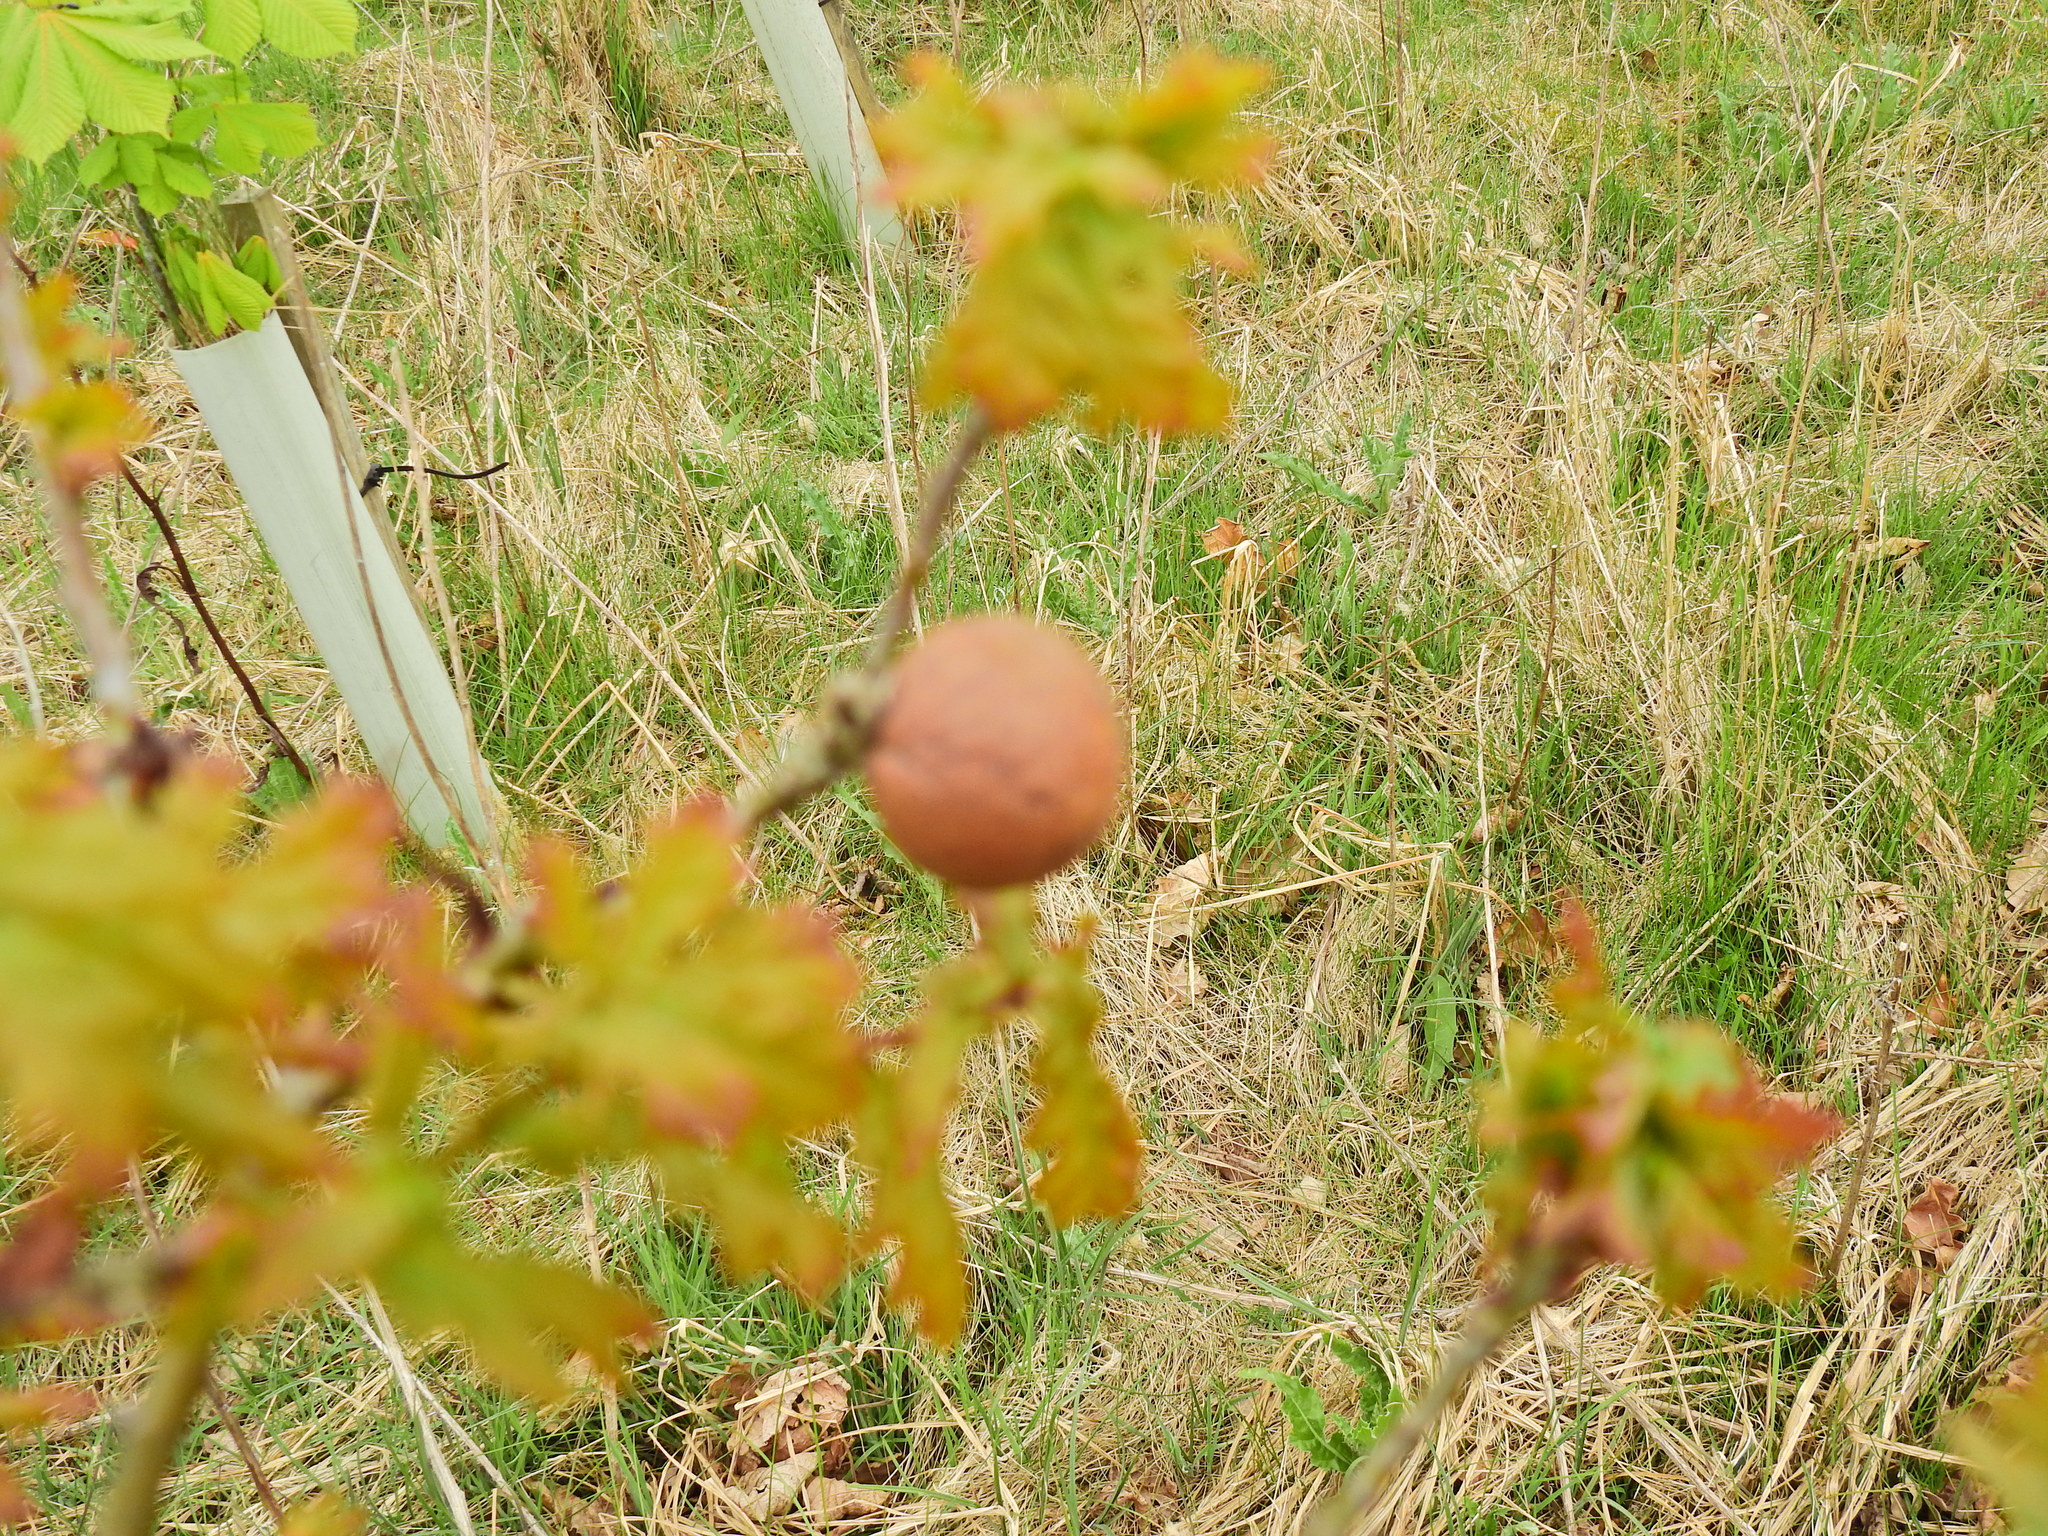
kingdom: Animalia
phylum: Arthropoda
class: Insecta
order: Hymenoptera
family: Cynipidae
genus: Andricus
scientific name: Andricus kollari
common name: Marble gall
